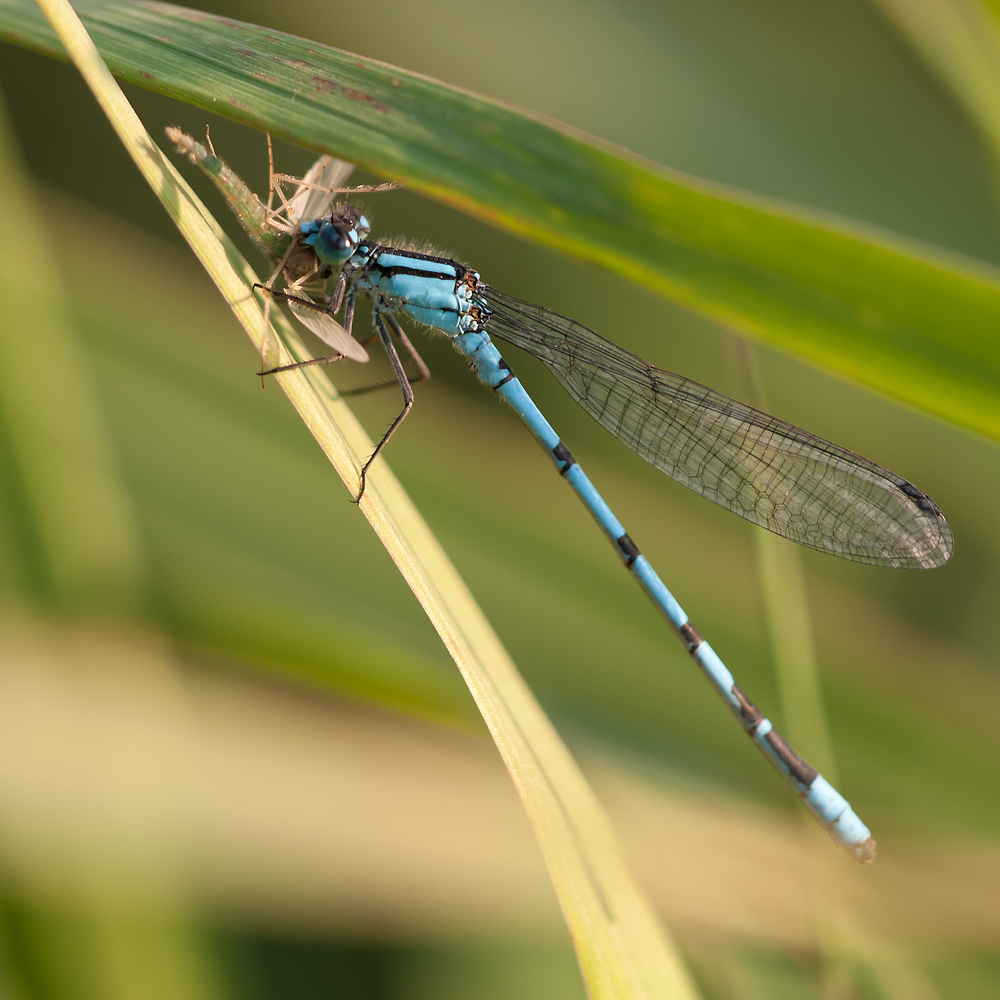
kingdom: Animalia
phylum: Arthropoda
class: Insecta
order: Odonata
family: Coenagrionidae
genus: Enallagma
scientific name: Enallagma cyathigerum
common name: Common blue damselfly
